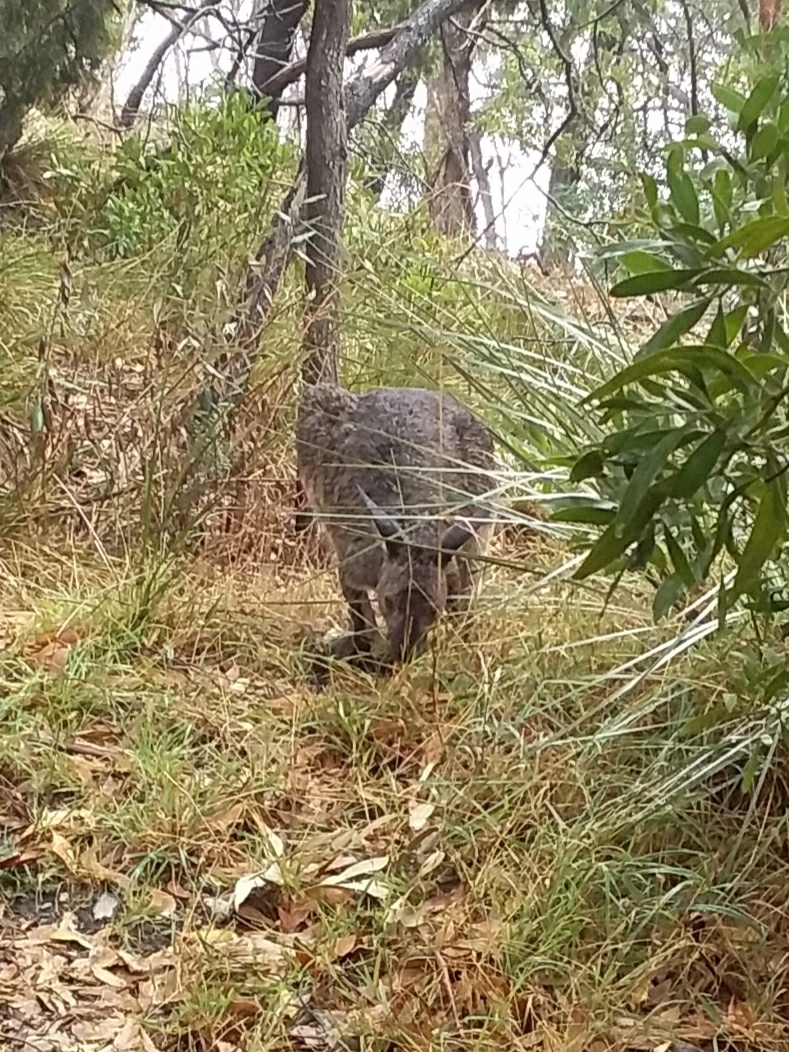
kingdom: Animalia
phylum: Chordata
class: Mammalia
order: Diprotodontia
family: Macropodidae
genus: Macropus
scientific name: Macropus fuliginosus
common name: Western grey kangaroo
